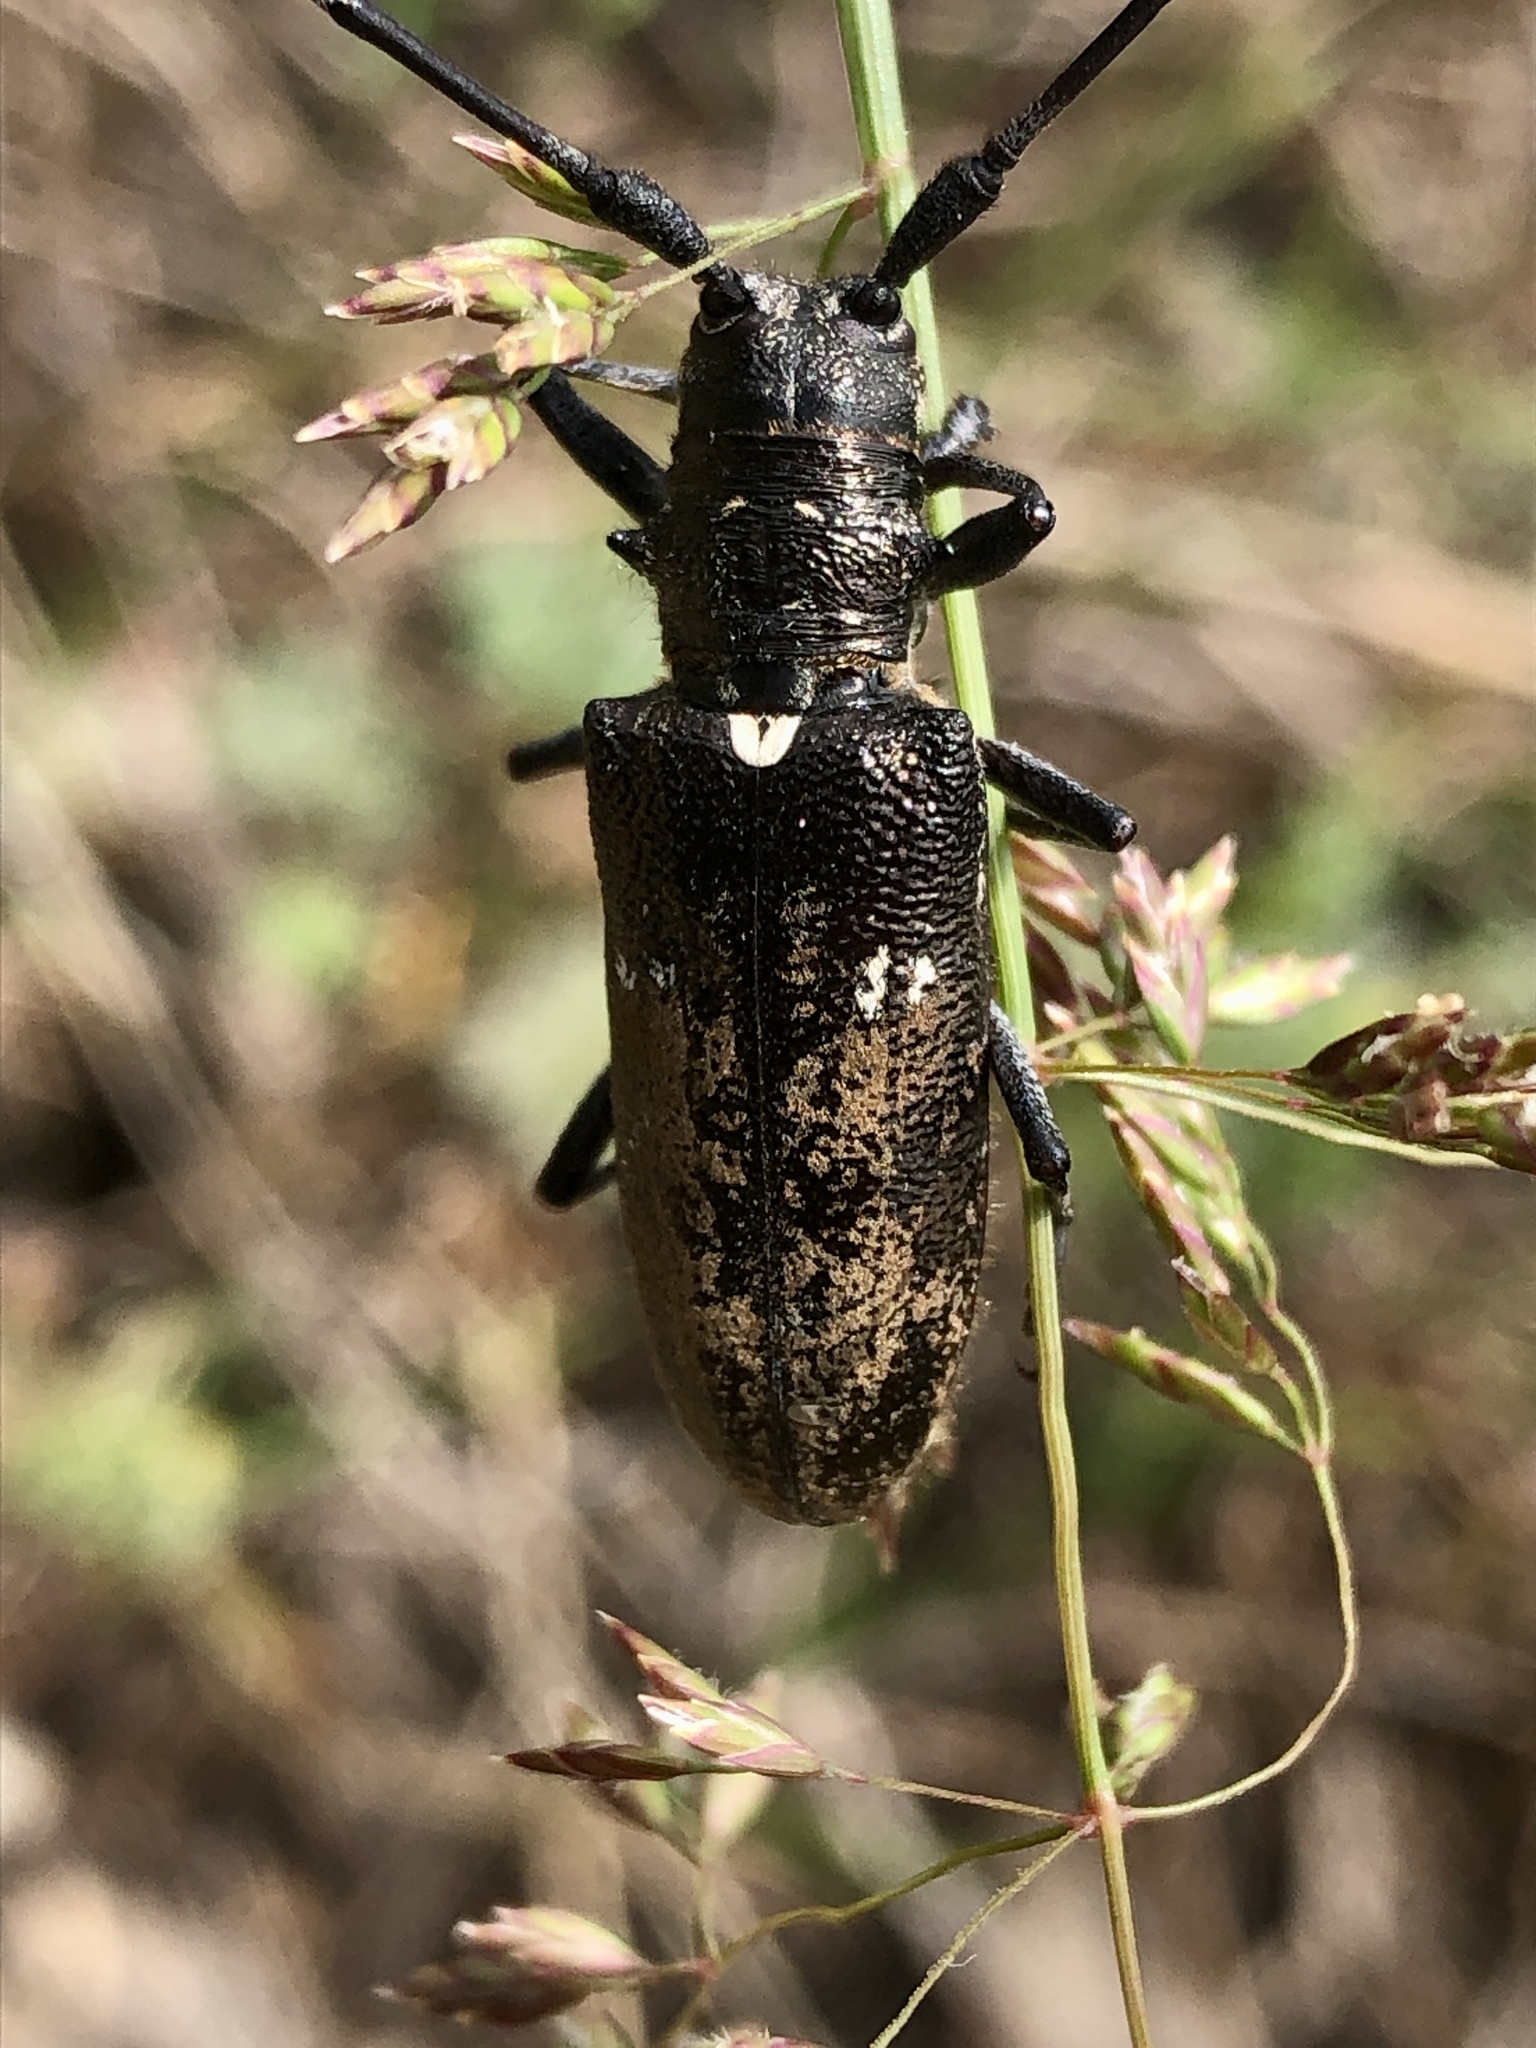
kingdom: Animalia
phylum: Arthropoda
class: Insecta
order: Coleoptera
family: Cerambycidae
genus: Monochamus
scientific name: Monochamus scutellatus
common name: White-spotted sawyer beetle
